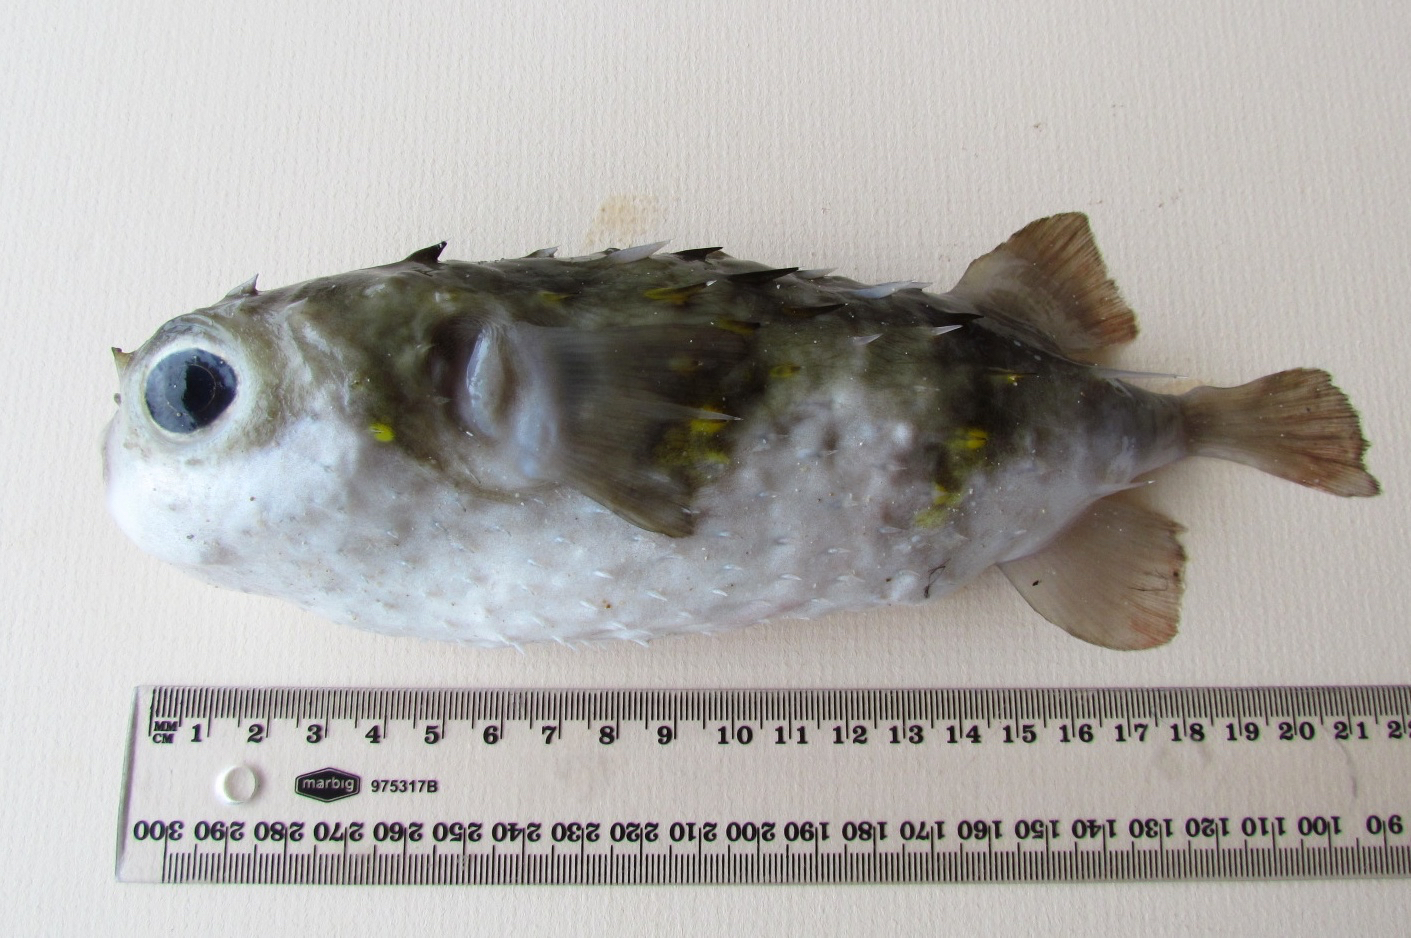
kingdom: Animalia
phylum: Chordata
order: Tetraodontiformes
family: Diodontidae
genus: Allomycterus
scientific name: Allomycterus pilatus
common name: No common name
